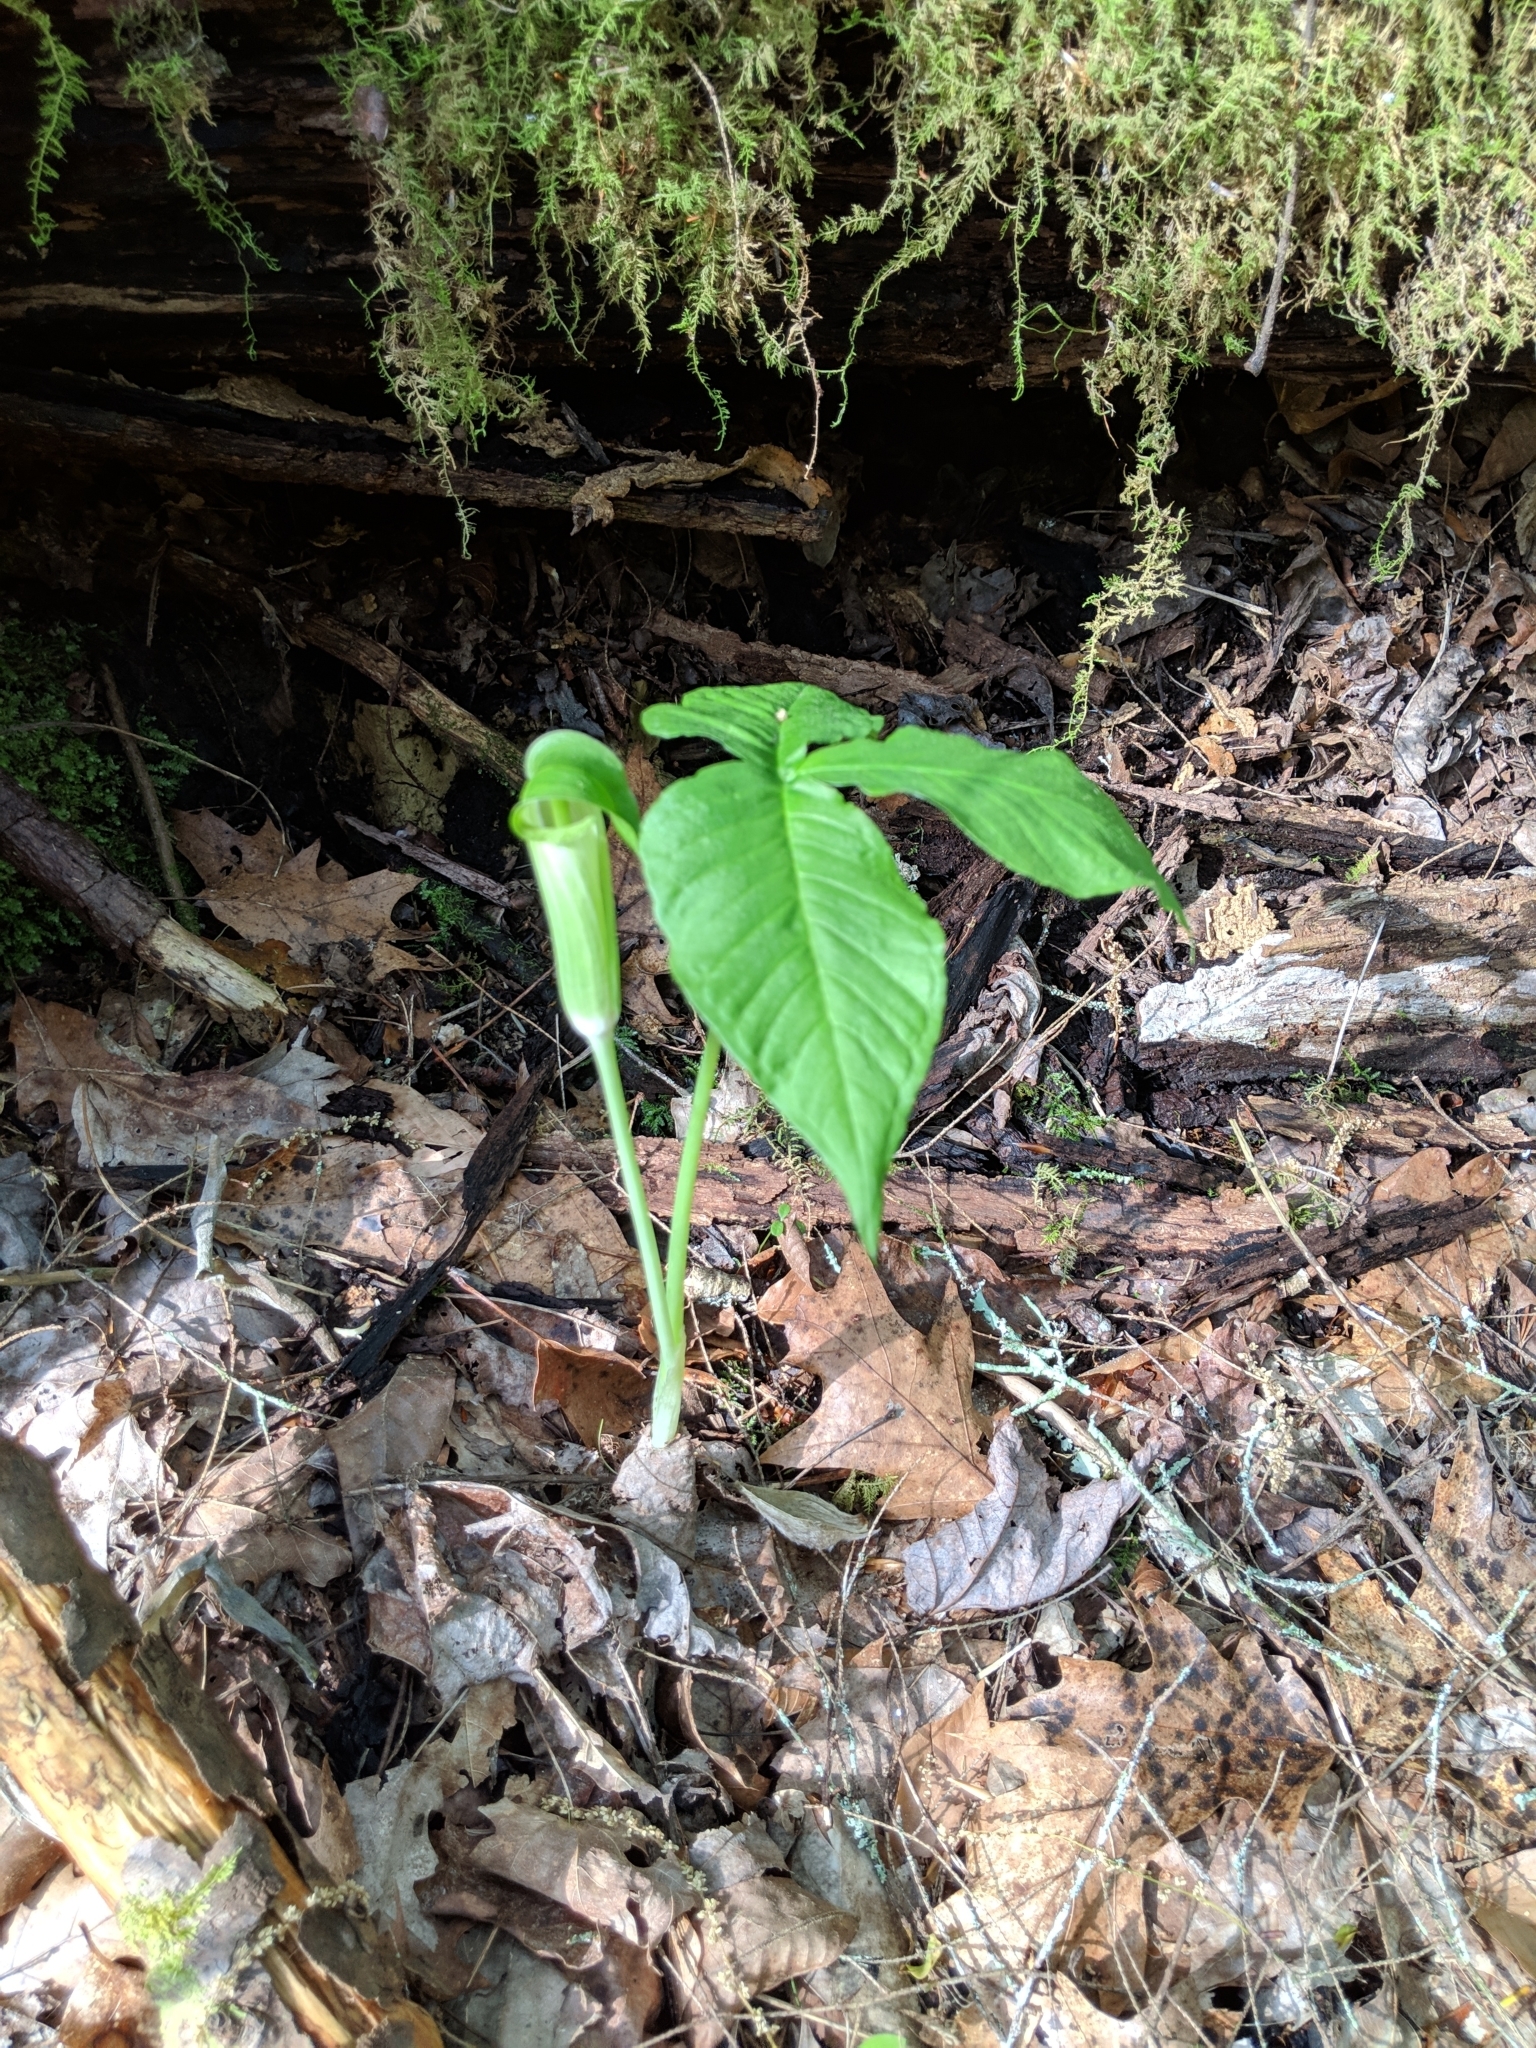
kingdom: Plantae
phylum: Tracheophyta
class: Liliopsida
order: Alismatales
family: Araceae
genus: Arisaema
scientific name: Arisaema triphyllum
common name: Jack-in-the-pulpit
